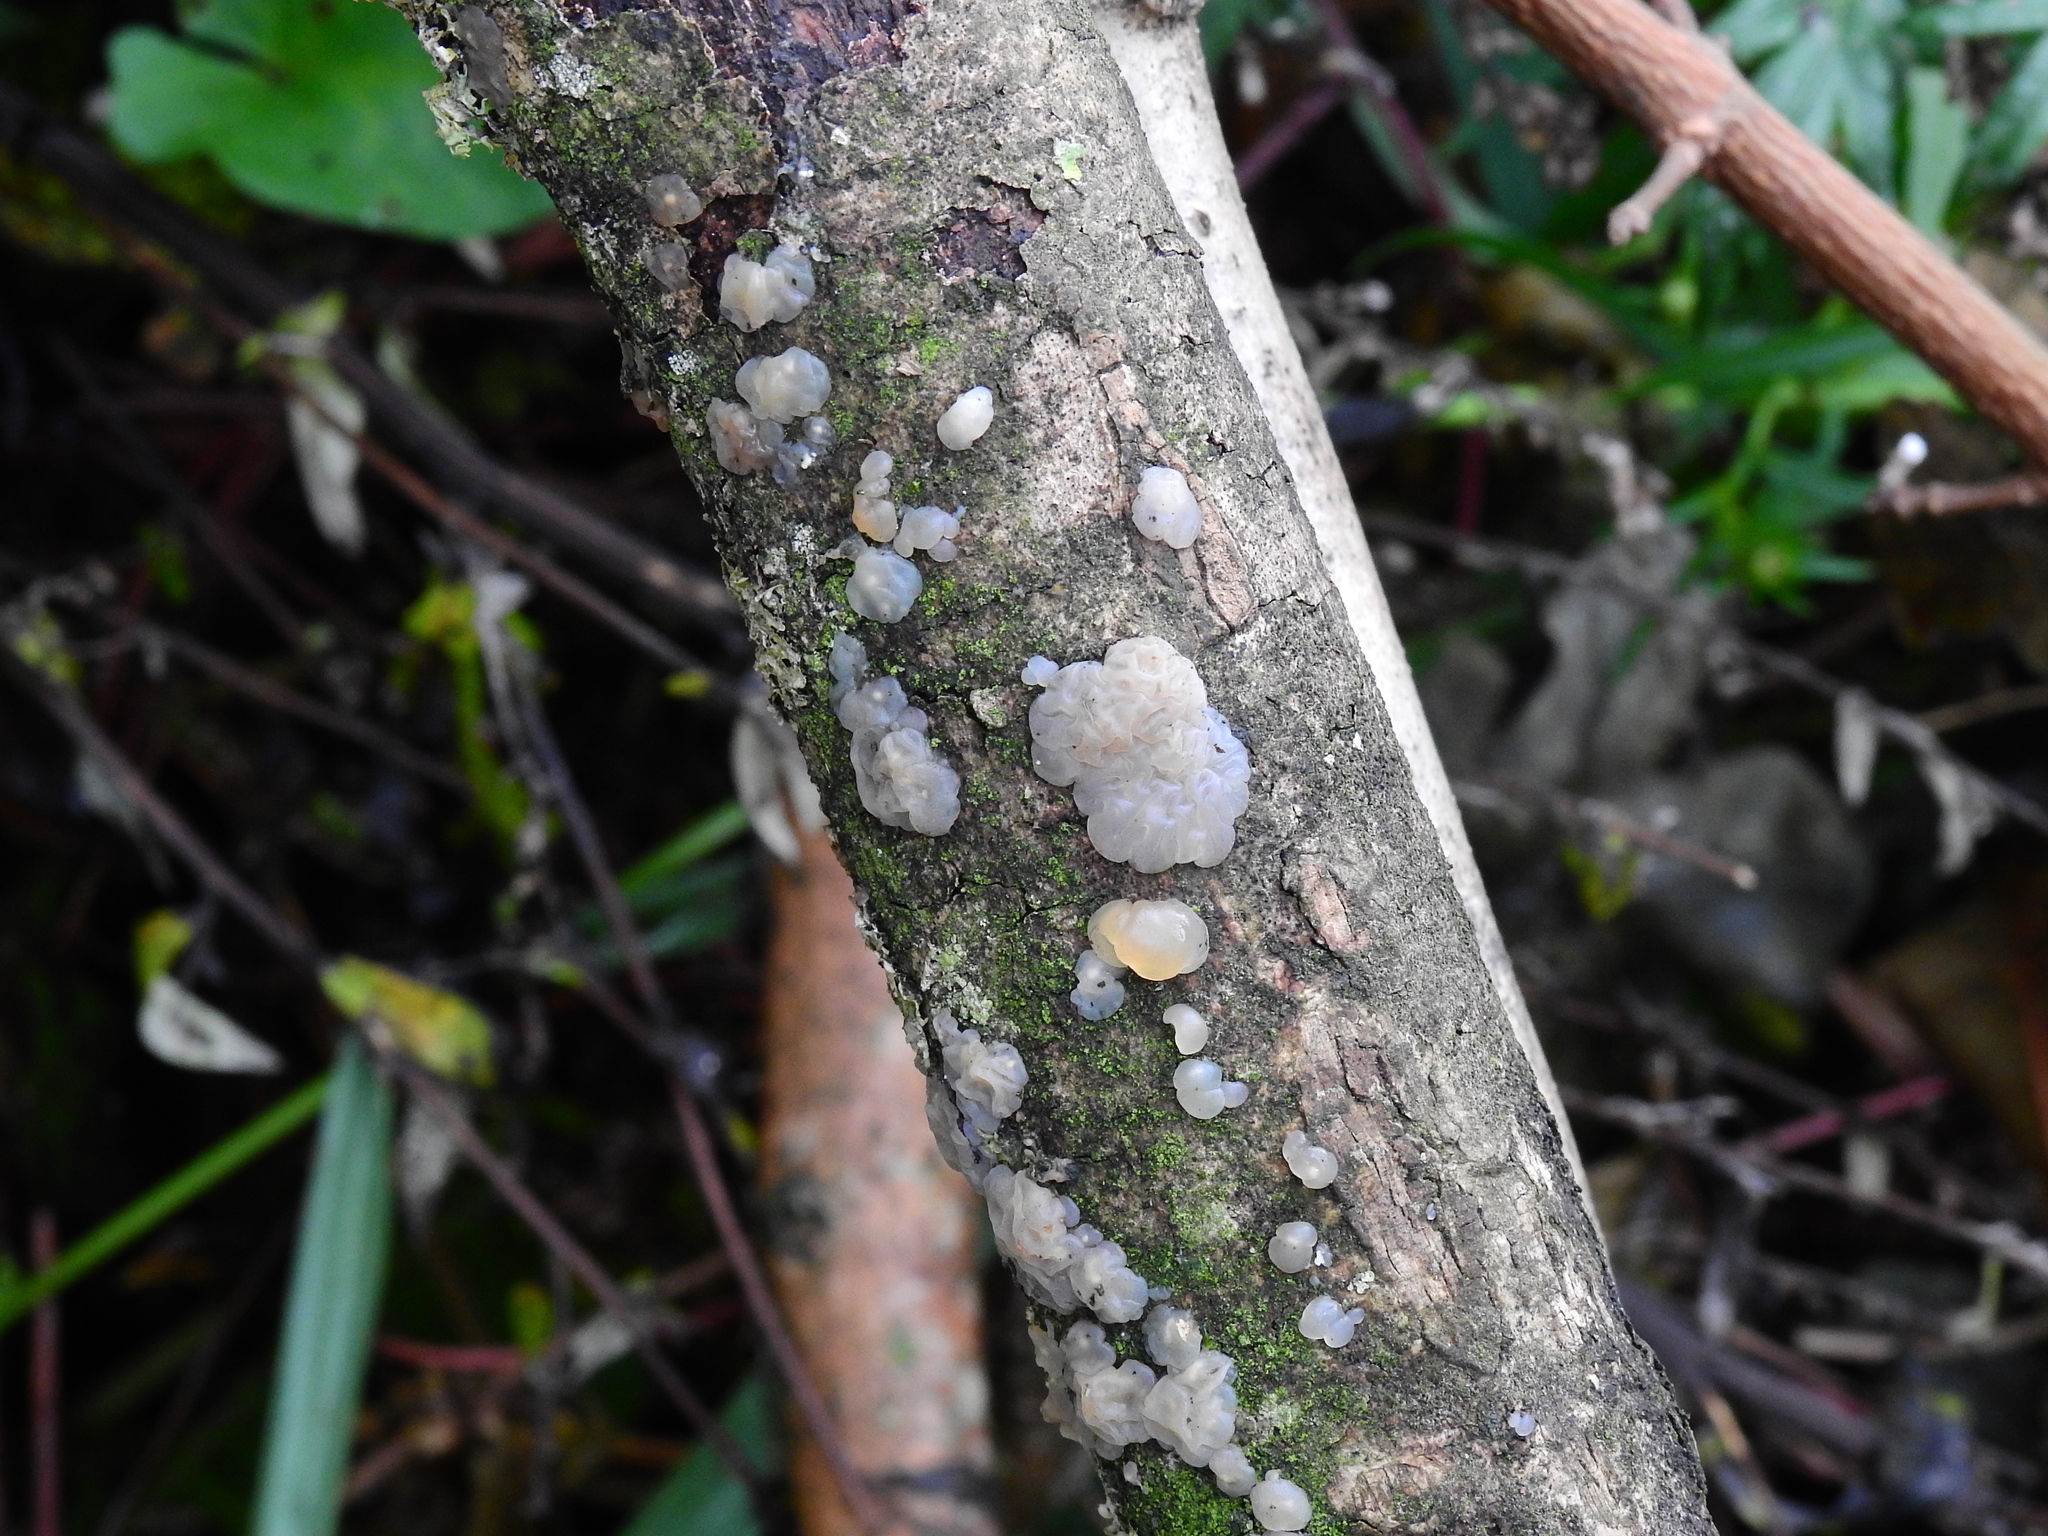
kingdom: Fungi
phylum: Basidiomycota
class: Agaricomycetes
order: Auriculariales
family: Hyaloriaceae
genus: Myxarium
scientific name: Myxarium nucleatum
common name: Crystal brain fungus
